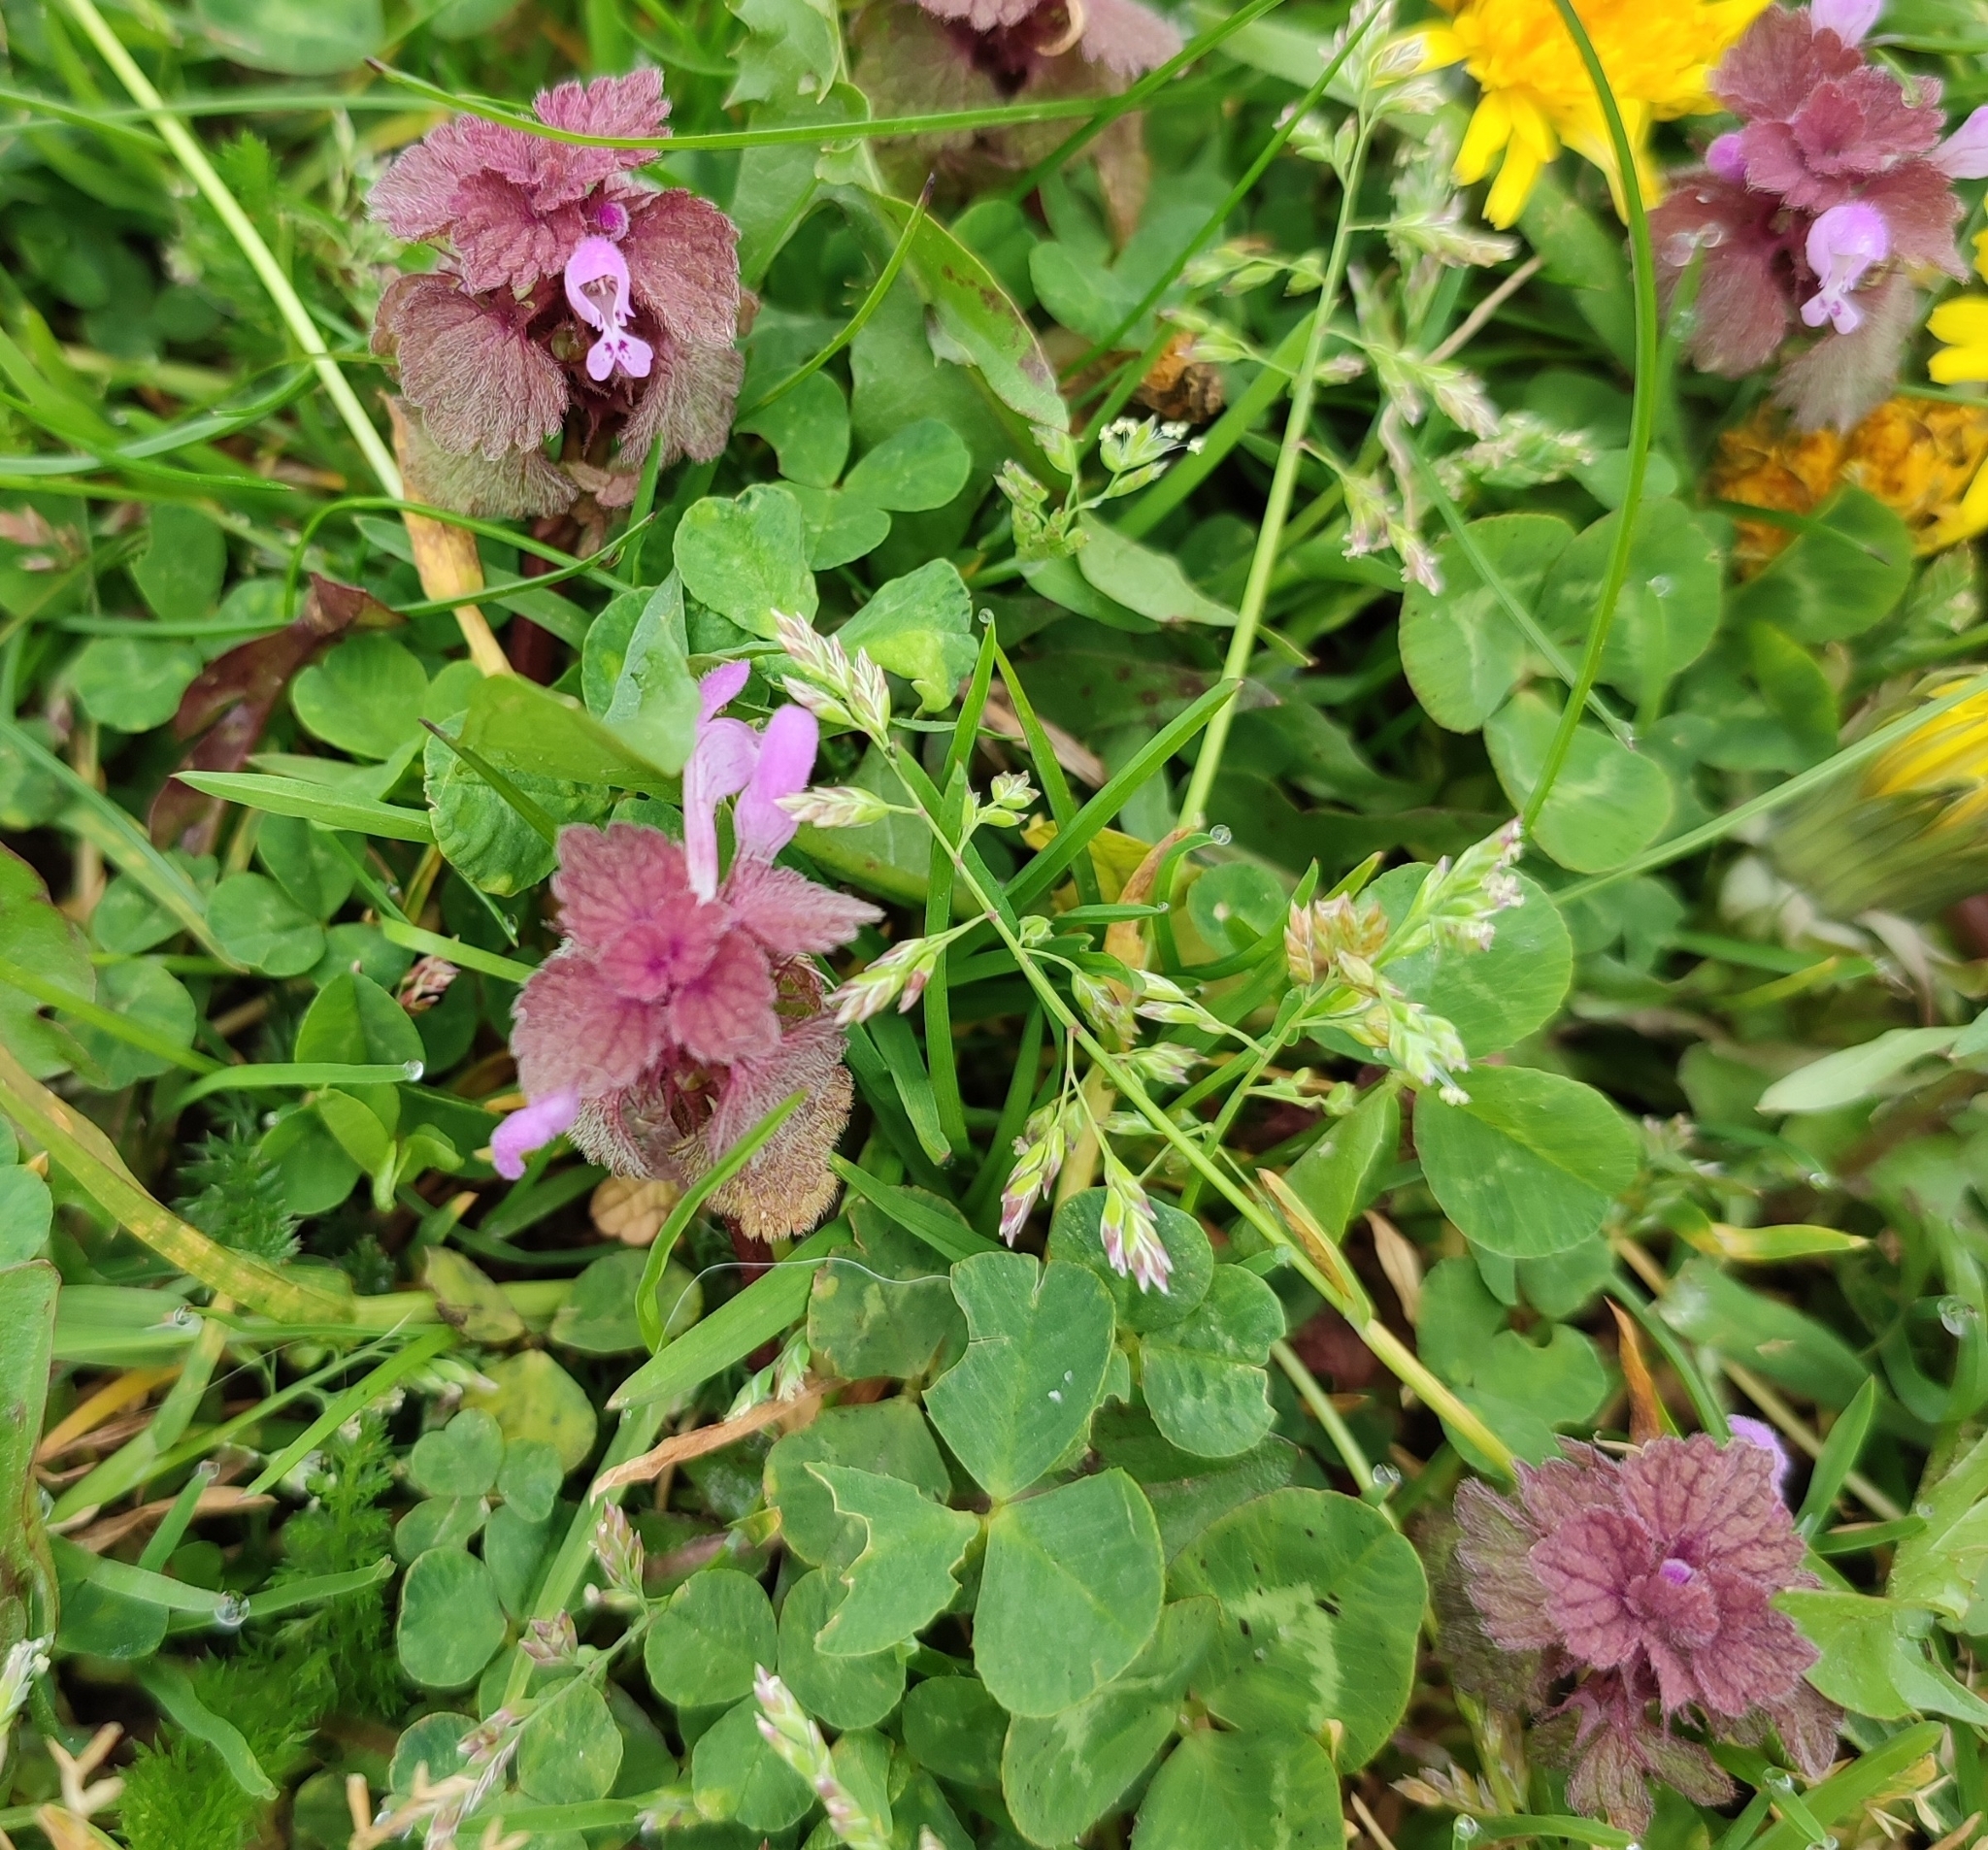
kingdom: Plantae
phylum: Tracheophyta
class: Magnoliopsida
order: Lamiales
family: Lamiaceae
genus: Lamium
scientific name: Lamium purpureum
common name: Red dead-nettle
